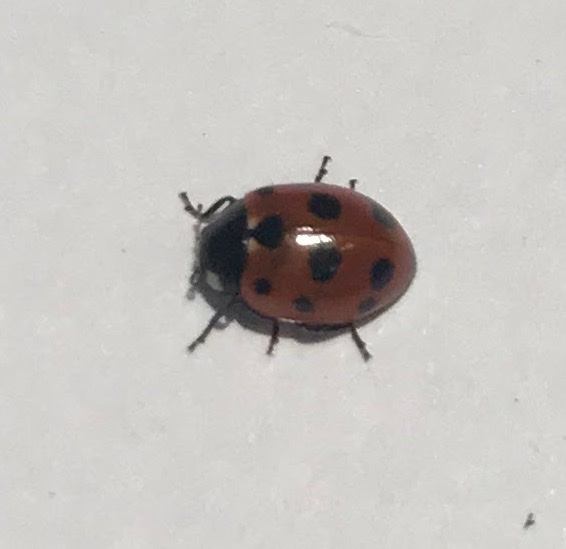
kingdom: Animalia
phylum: Arthropoda
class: Insecta
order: Coleoptera
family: Coccinellidae
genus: Coccinella
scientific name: Coccinella undecimpunctata
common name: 11-spot ladybird
